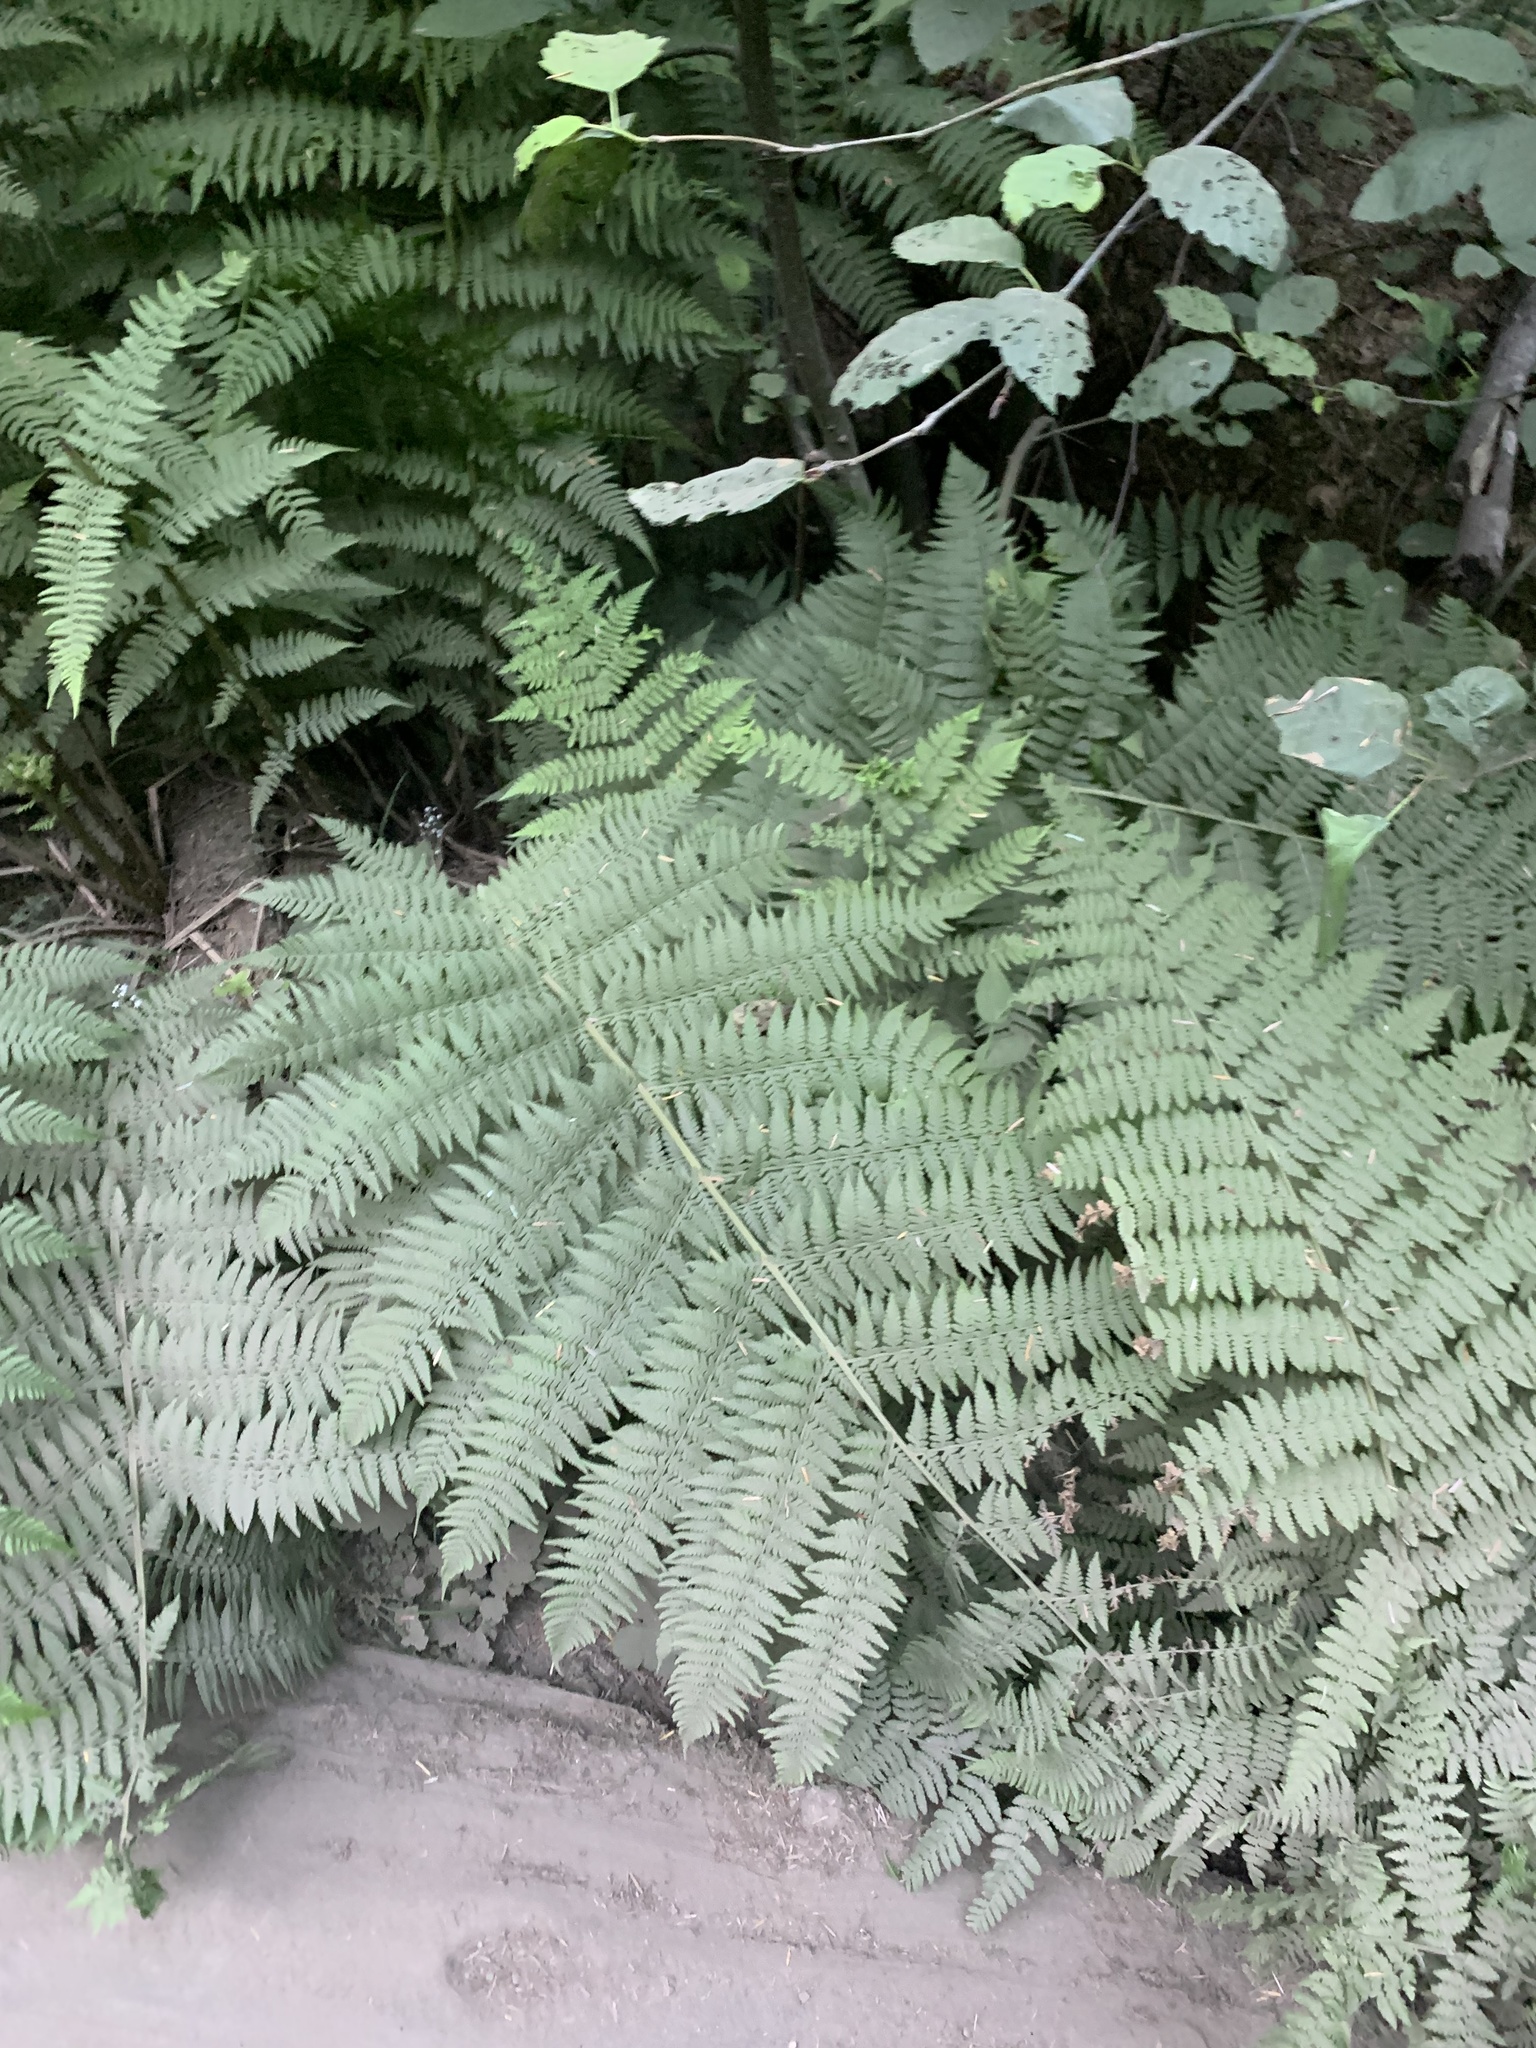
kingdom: Plantae
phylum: Tracheophyta
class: Polypodiopsida
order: Polypodiales
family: Athyriaceae
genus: Athyrium
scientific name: Athyrium filix-femina
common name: Lady fern
